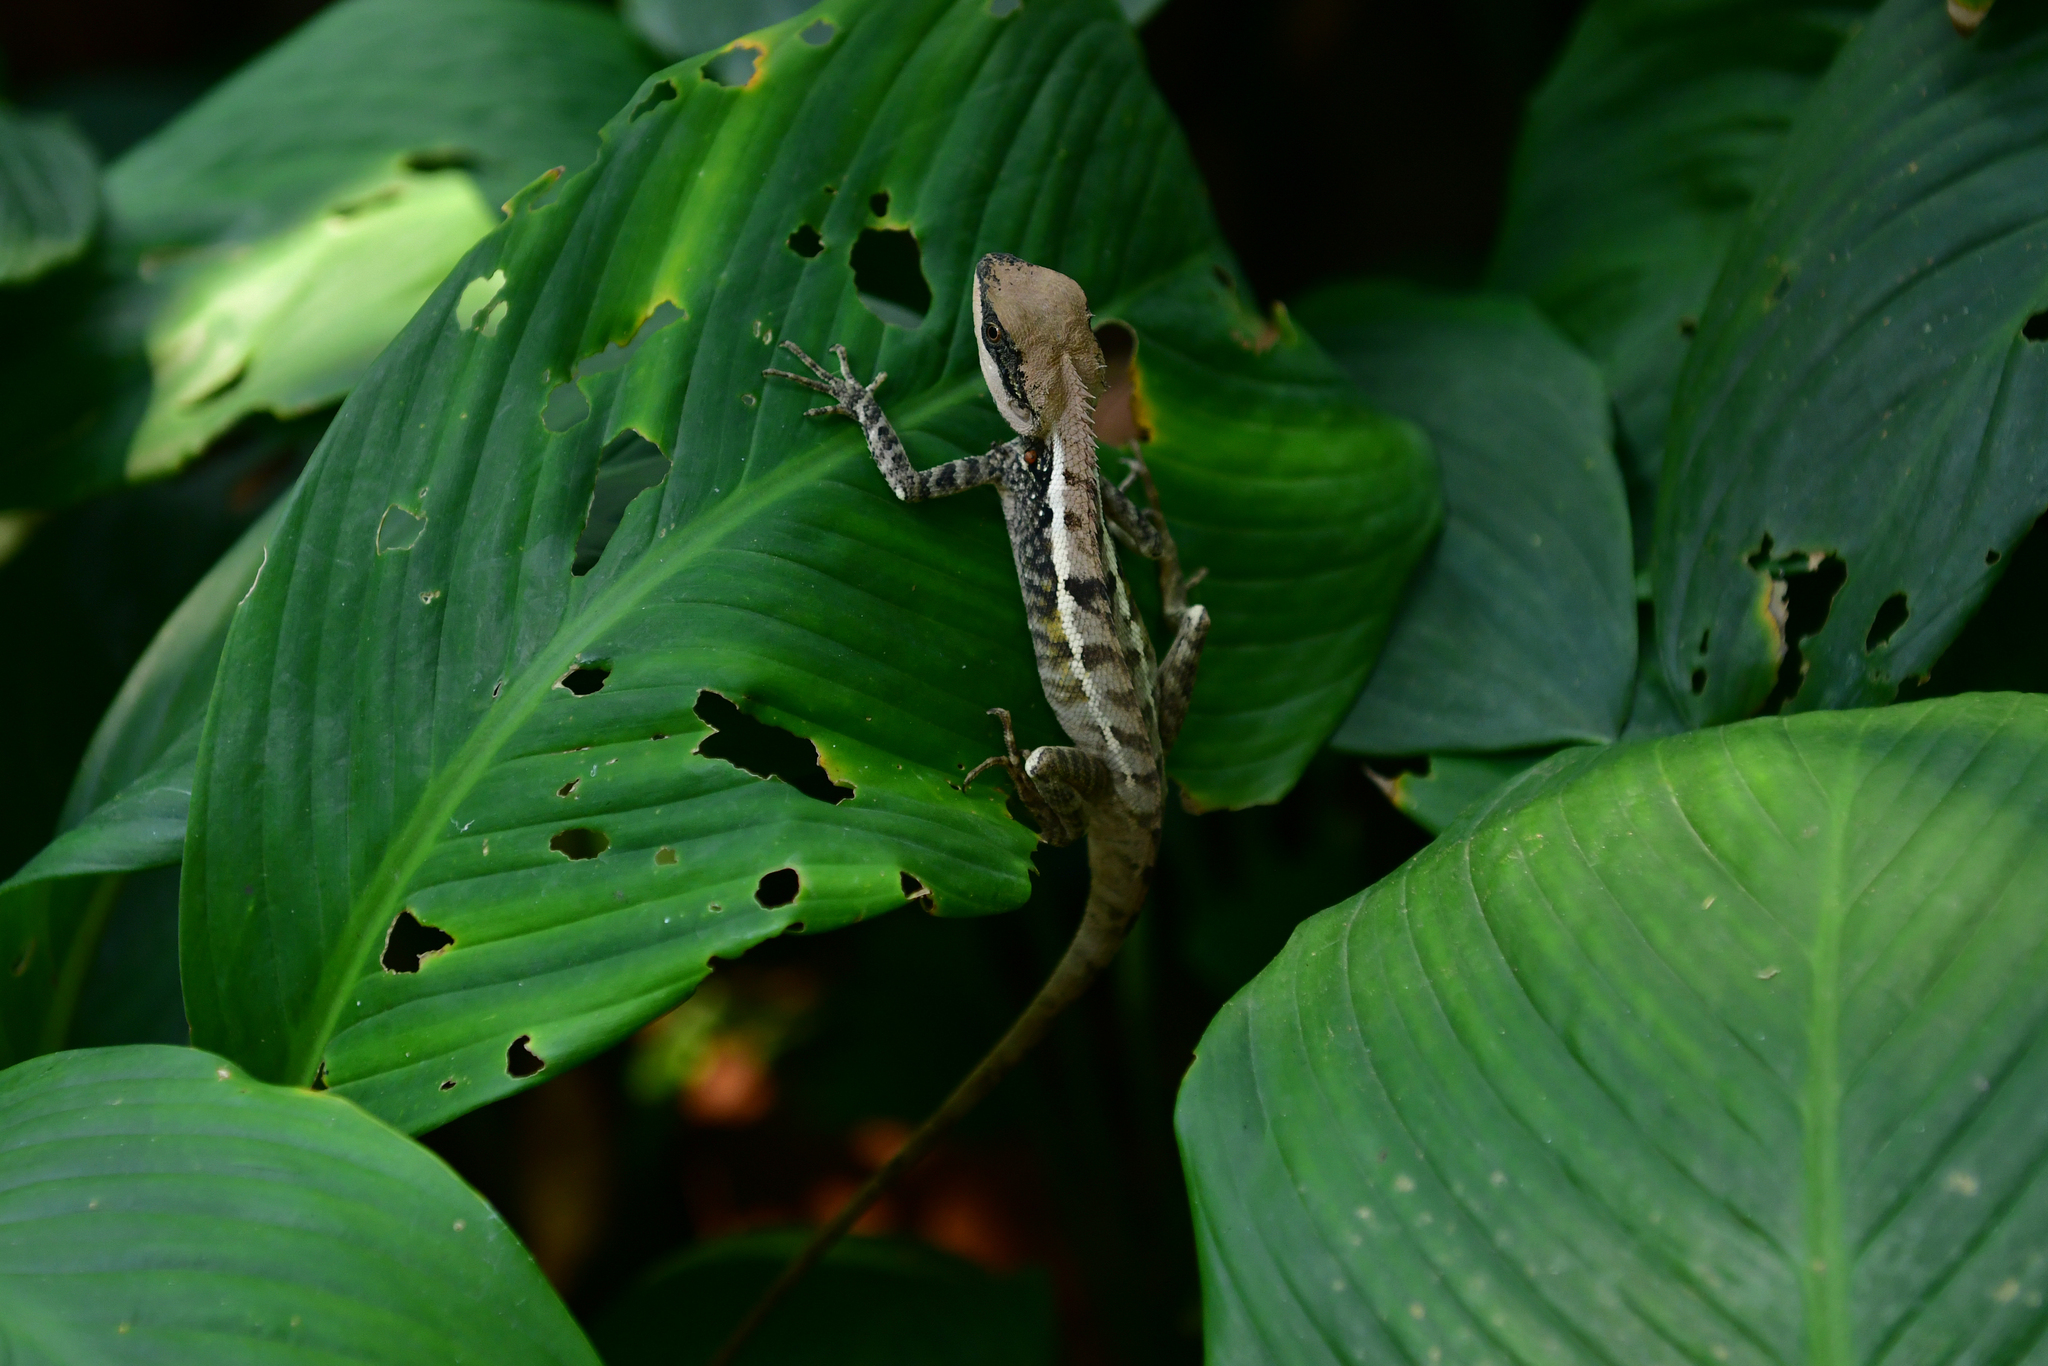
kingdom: Animalia
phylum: Chordata
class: Squamata
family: Agamidae
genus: Calotes
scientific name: Calotes emma
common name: Thailand bloodsucker
